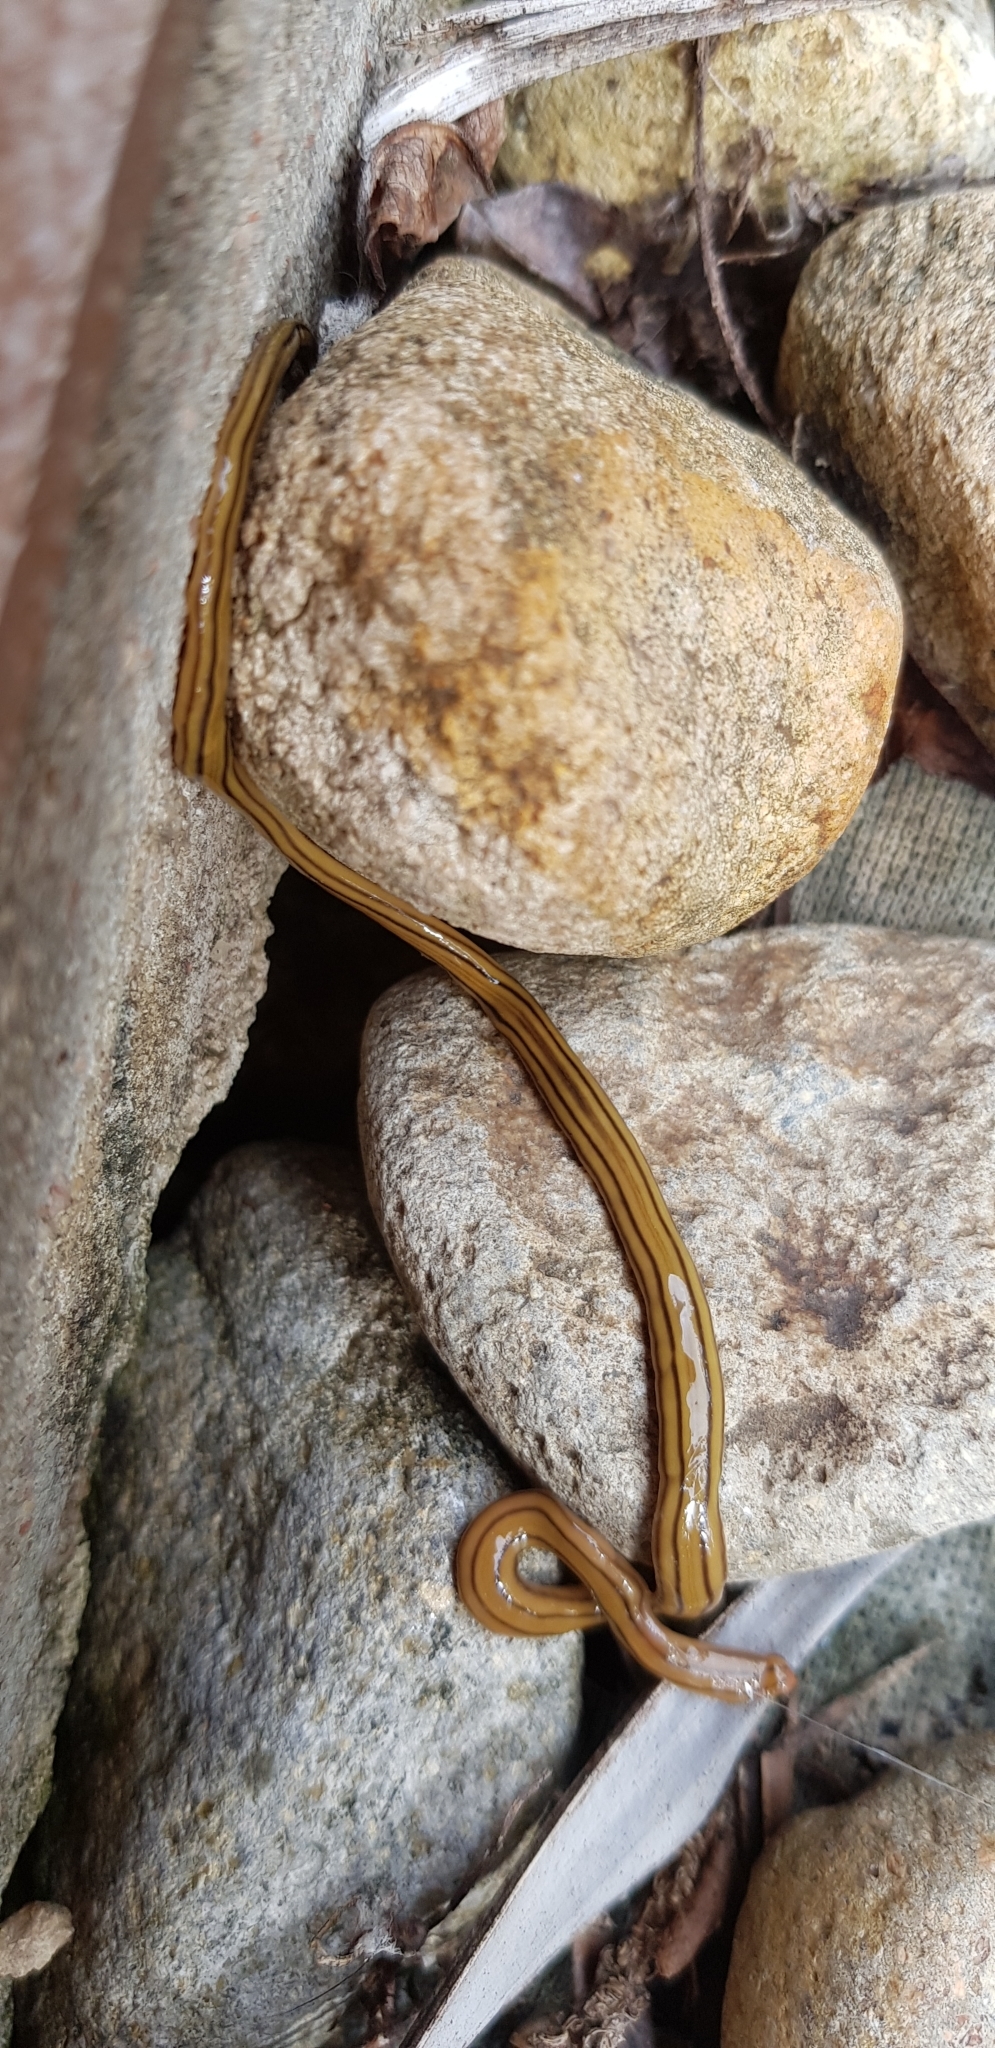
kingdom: Animalia
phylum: Platyhelminthes
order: Tricladida
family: Geoplanidae
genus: Dolichoplana
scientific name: Dolichoplana striata
